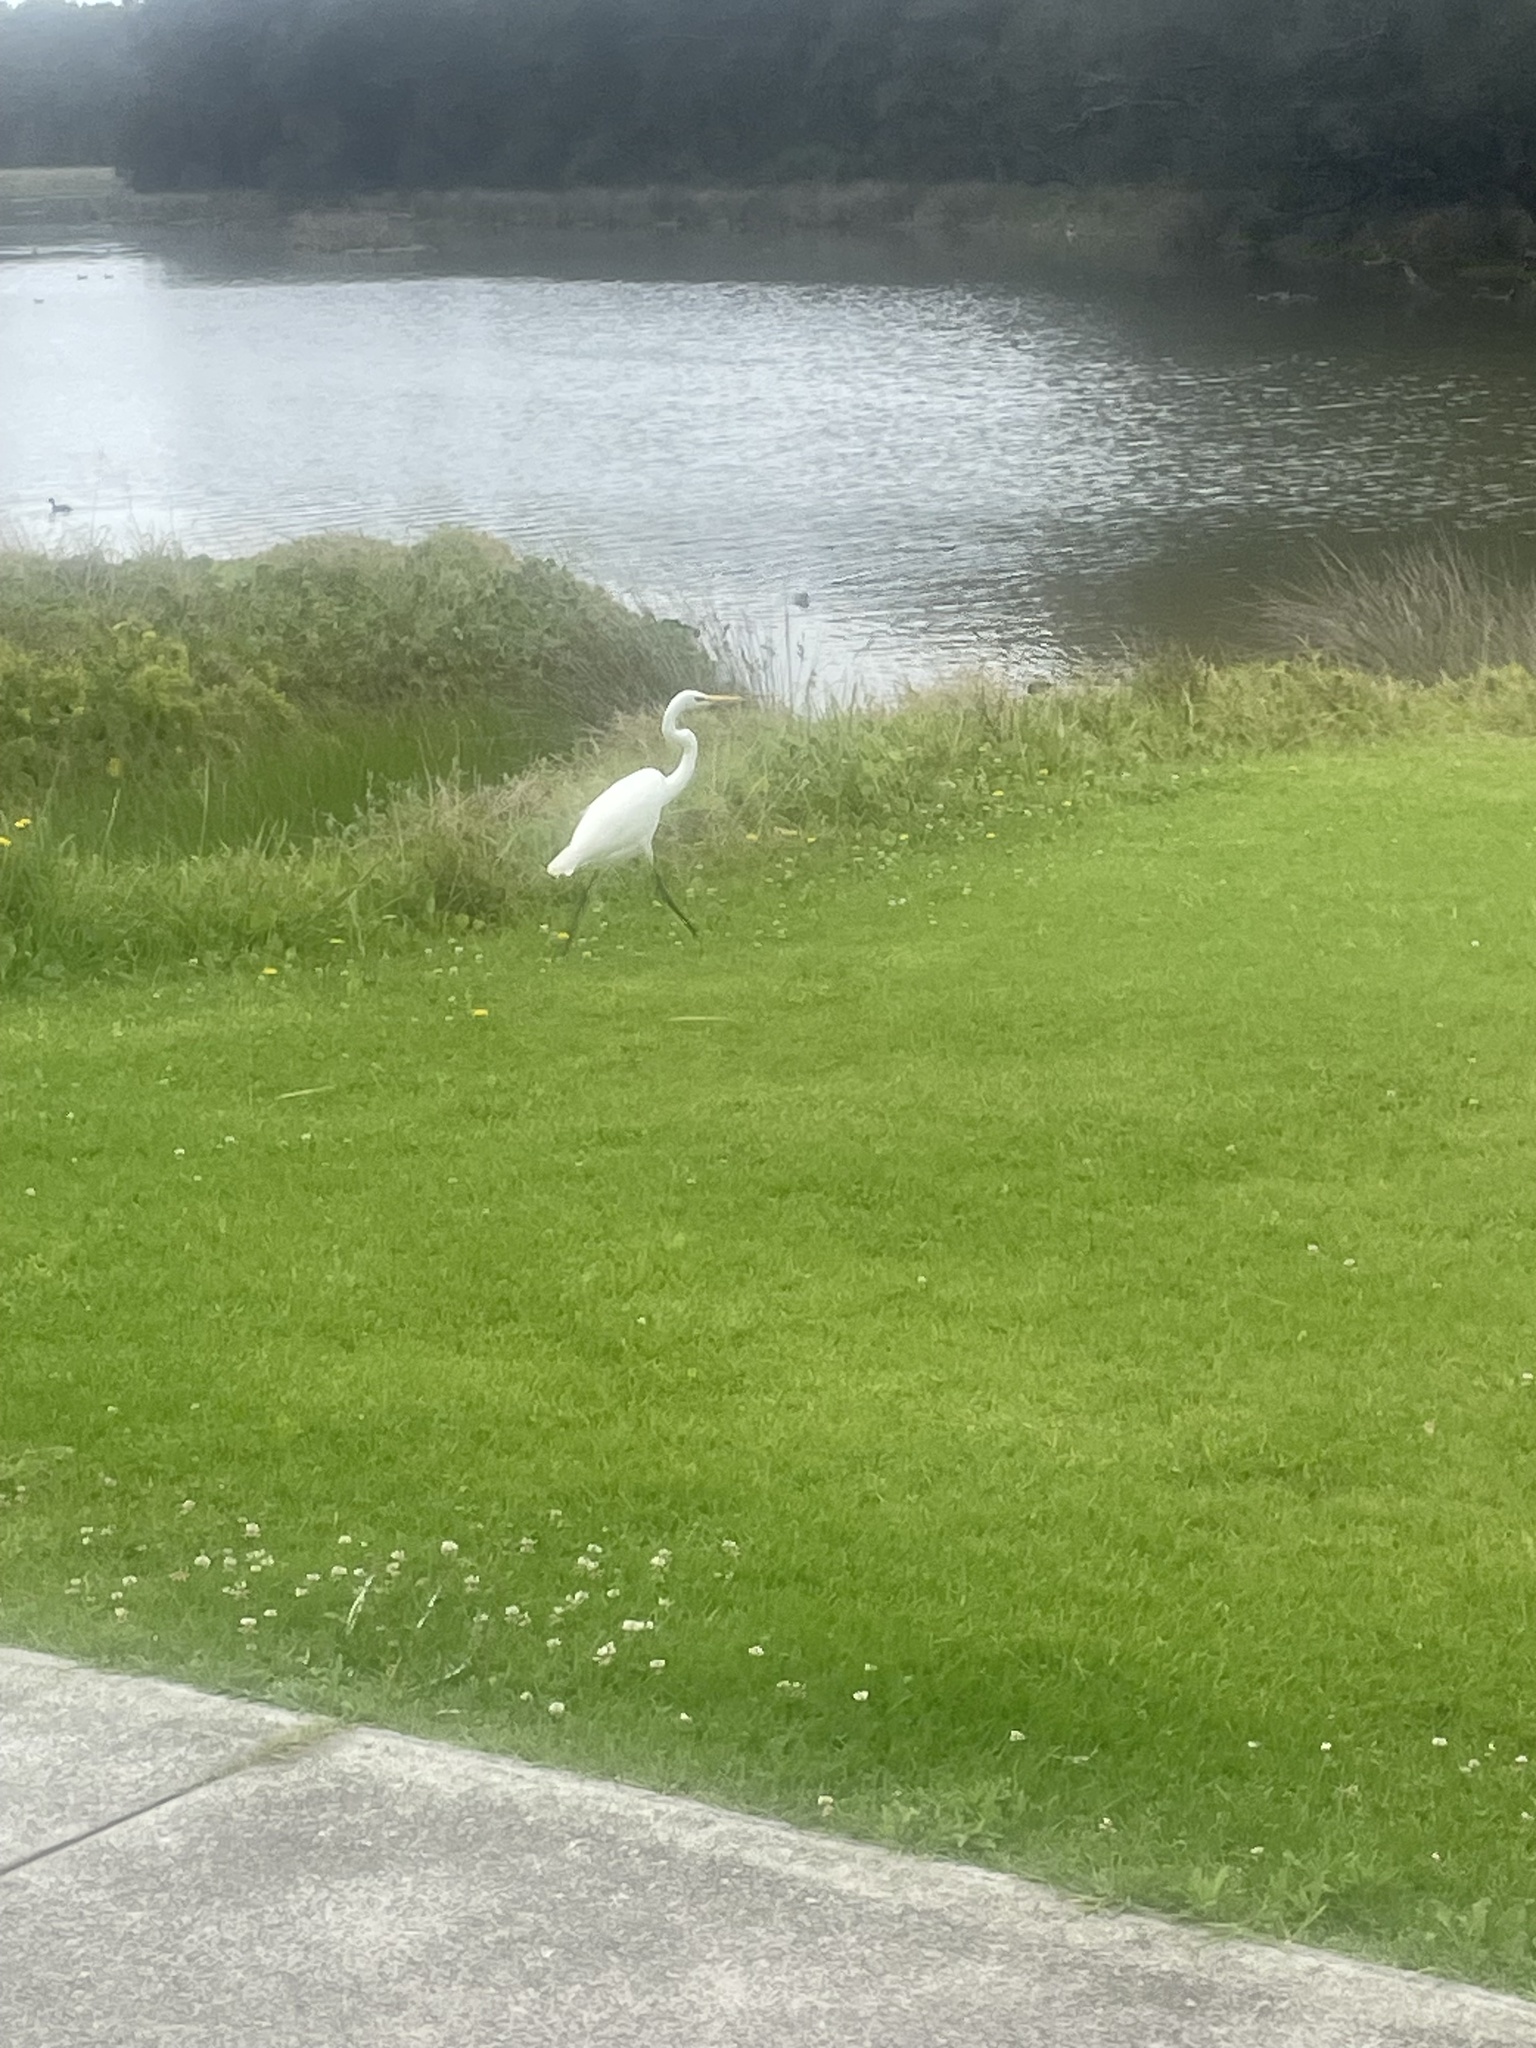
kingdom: Animalia
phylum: Chordata
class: Aves
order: Pelecaniformes
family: Ardeidae
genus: Ardea
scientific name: Ardea modesta
